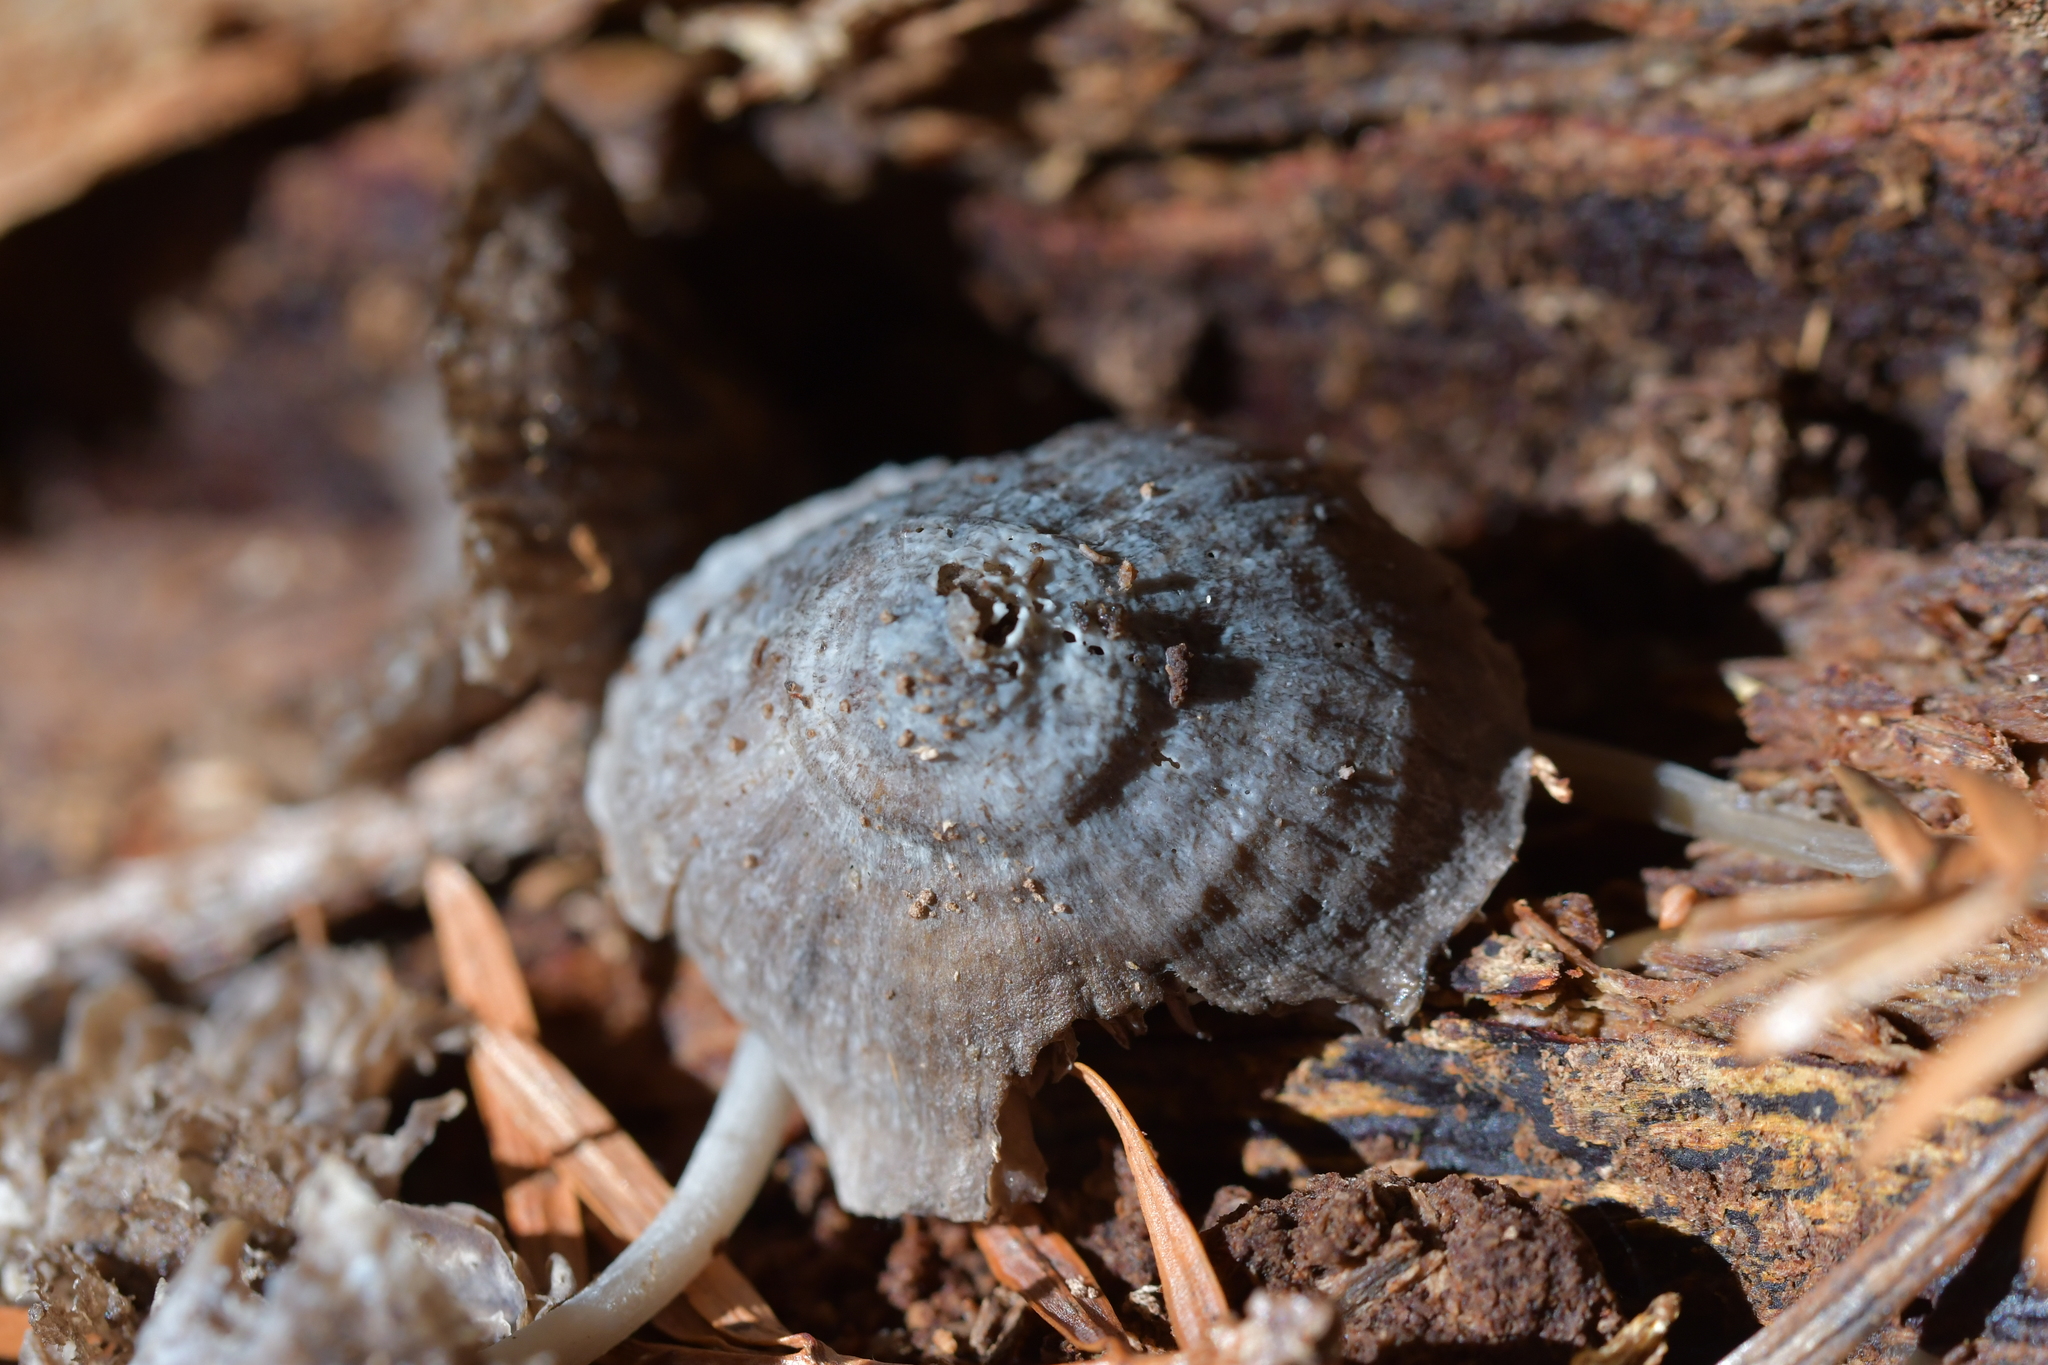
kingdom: Animalia
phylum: Arthropoda
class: Insecta
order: Orthoptera
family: Acrididae
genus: Phaulacridium
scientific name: Phaulacridium marginale
